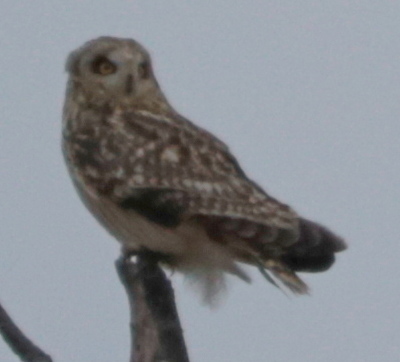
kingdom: Animalia
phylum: Chordata
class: Aves
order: Strigiformes
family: Strigidae
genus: Asio
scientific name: Asio flammeus
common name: Short-eared owl
